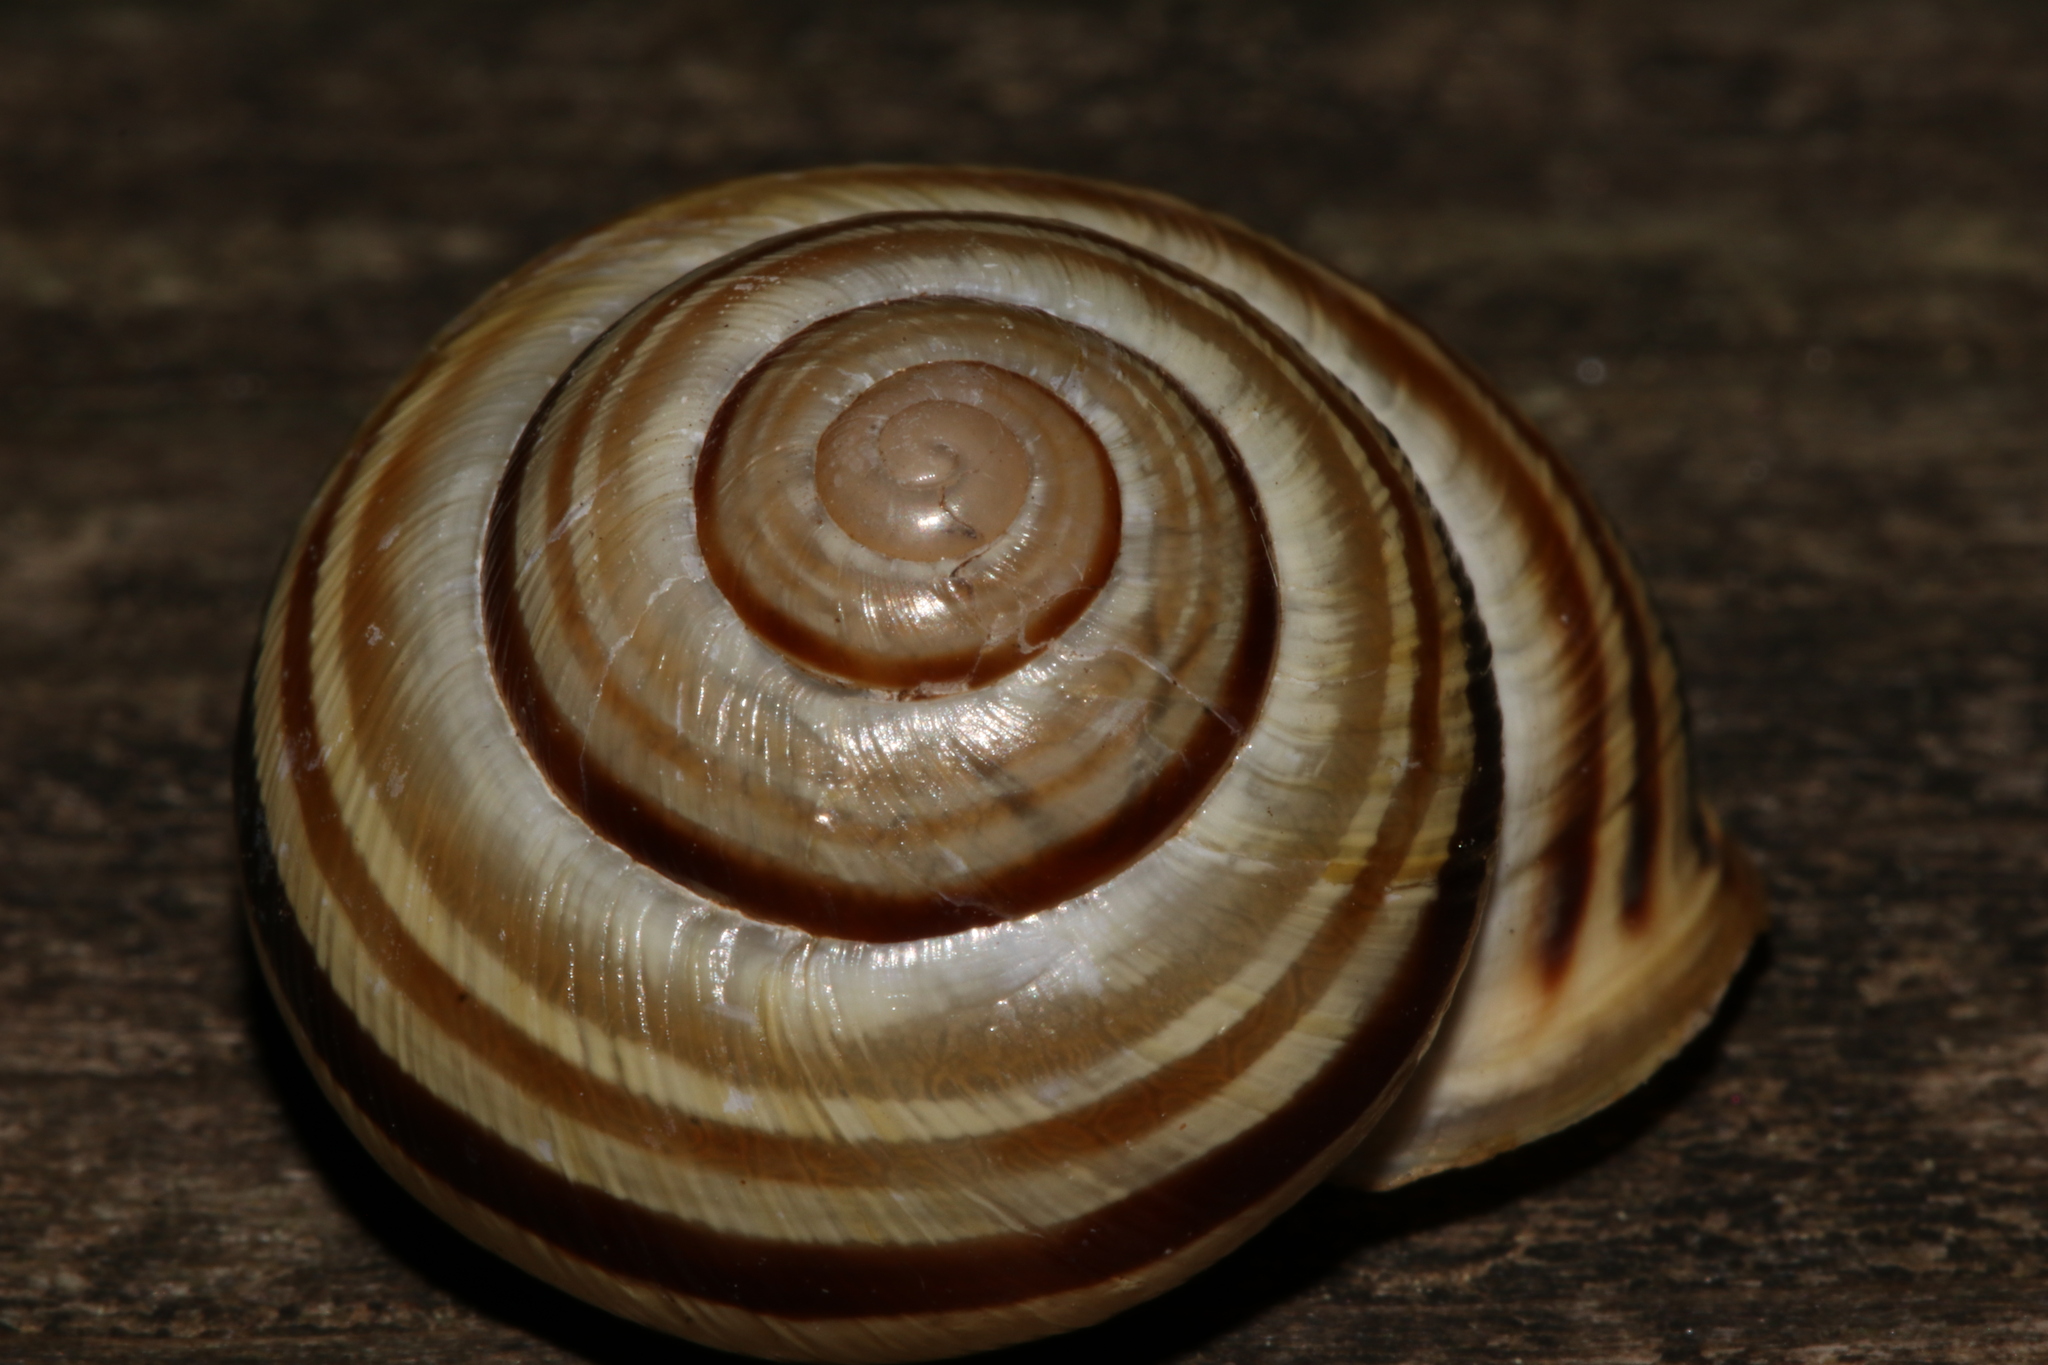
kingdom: Animalia
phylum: Mollusca
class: Gastropoda
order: Stylommatophora
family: Helicidae
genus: Caucasotachea
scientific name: Caucasotachea vindobonensis
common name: European helicid land snail
